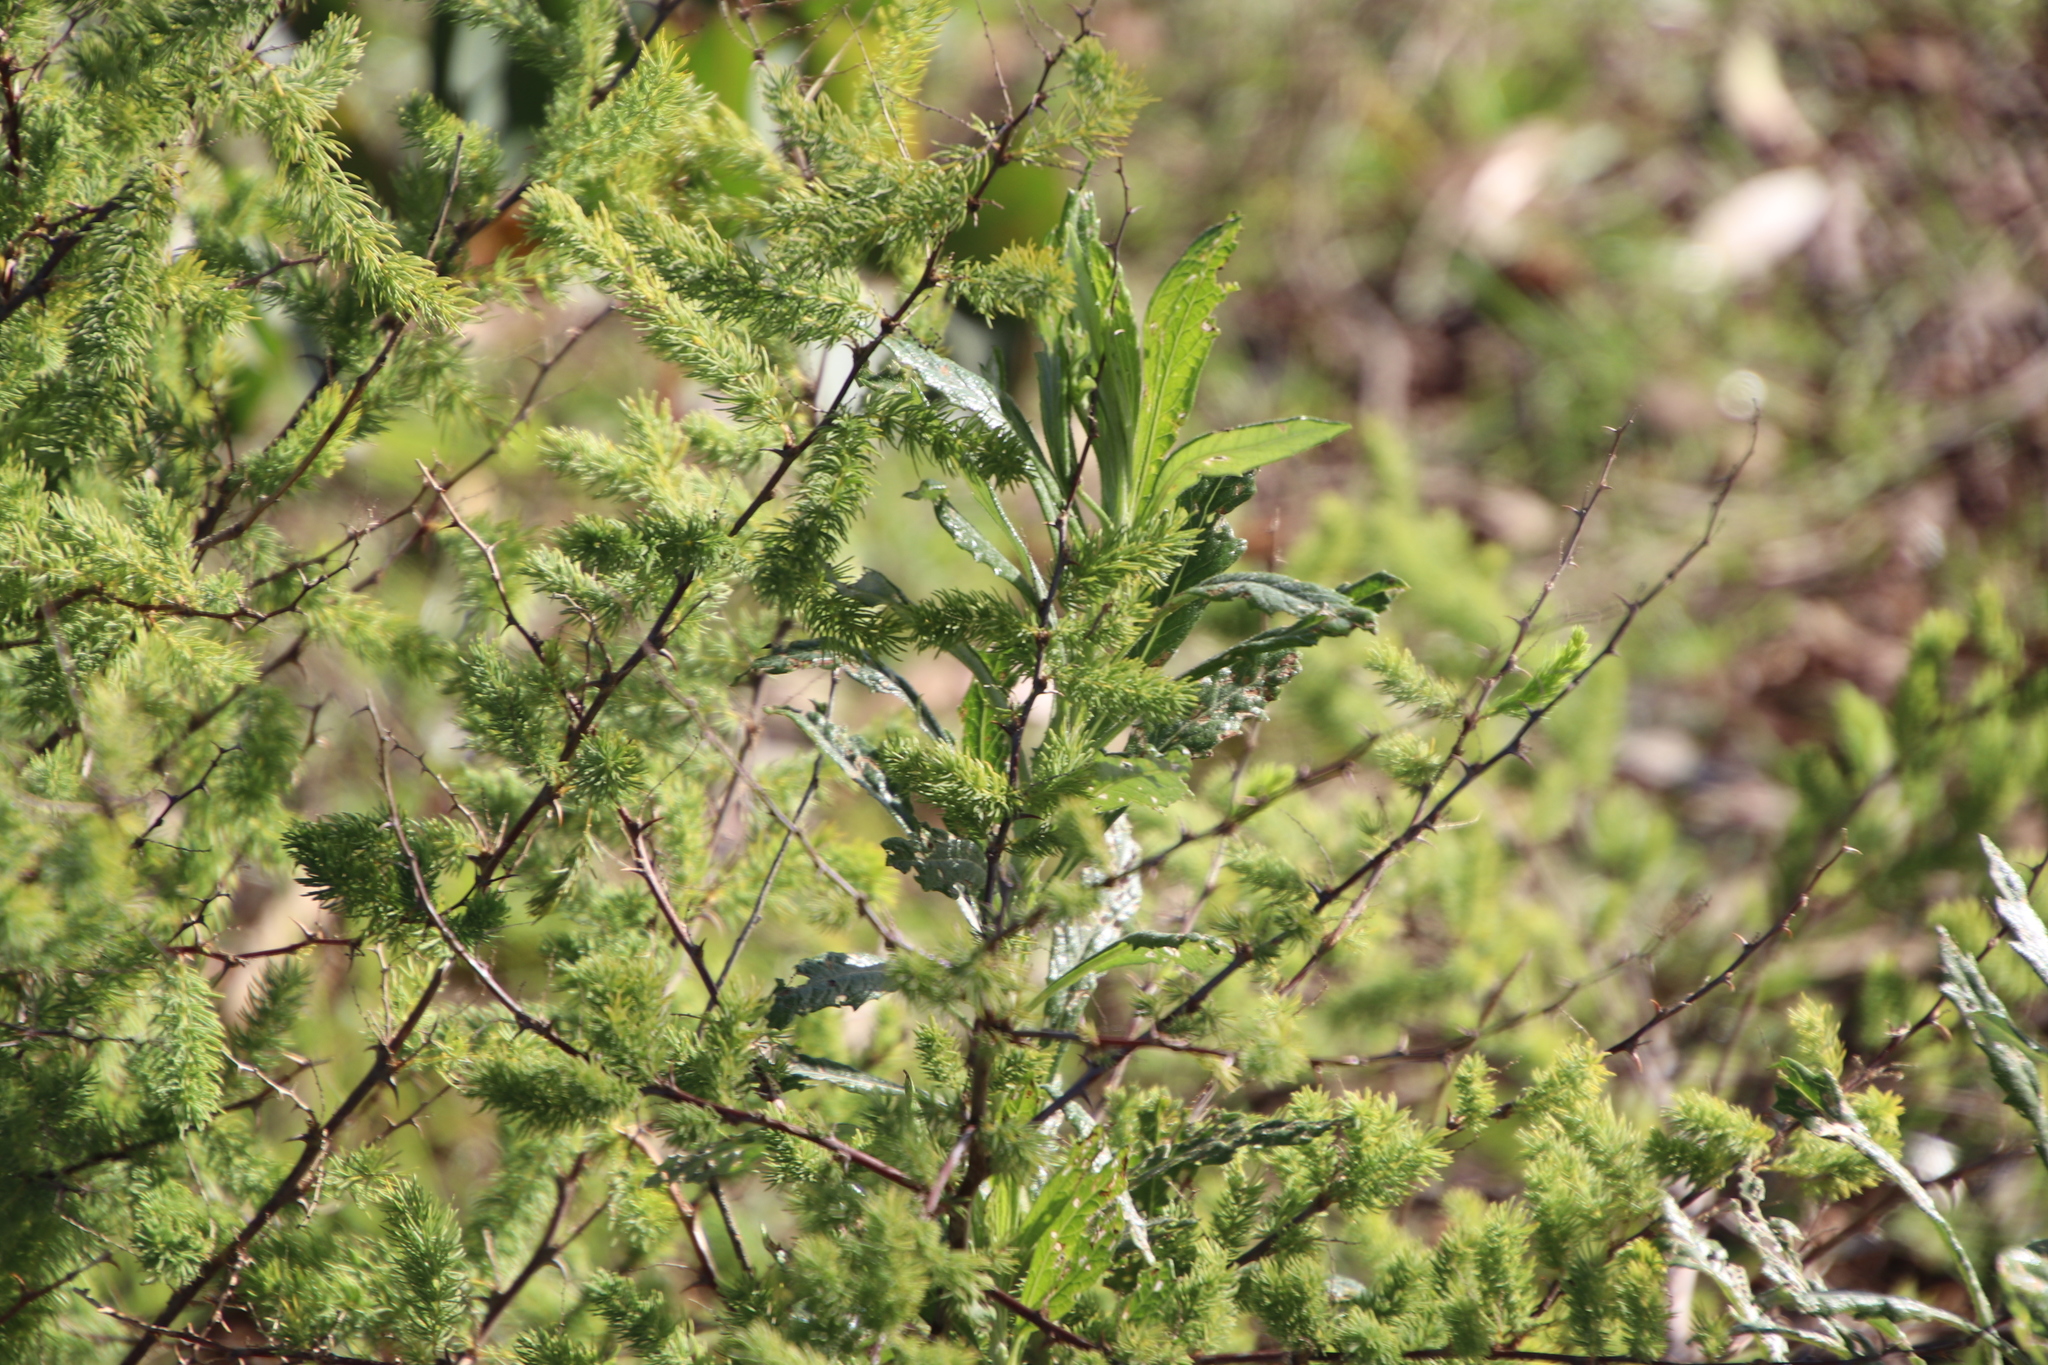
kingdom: Plantae
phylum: Tracheophyta
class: Magnoliopsida
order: Asterales
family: Asteraceae
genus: Senecio
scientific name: Senecio pterophorus
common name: Shoddy ragwort
